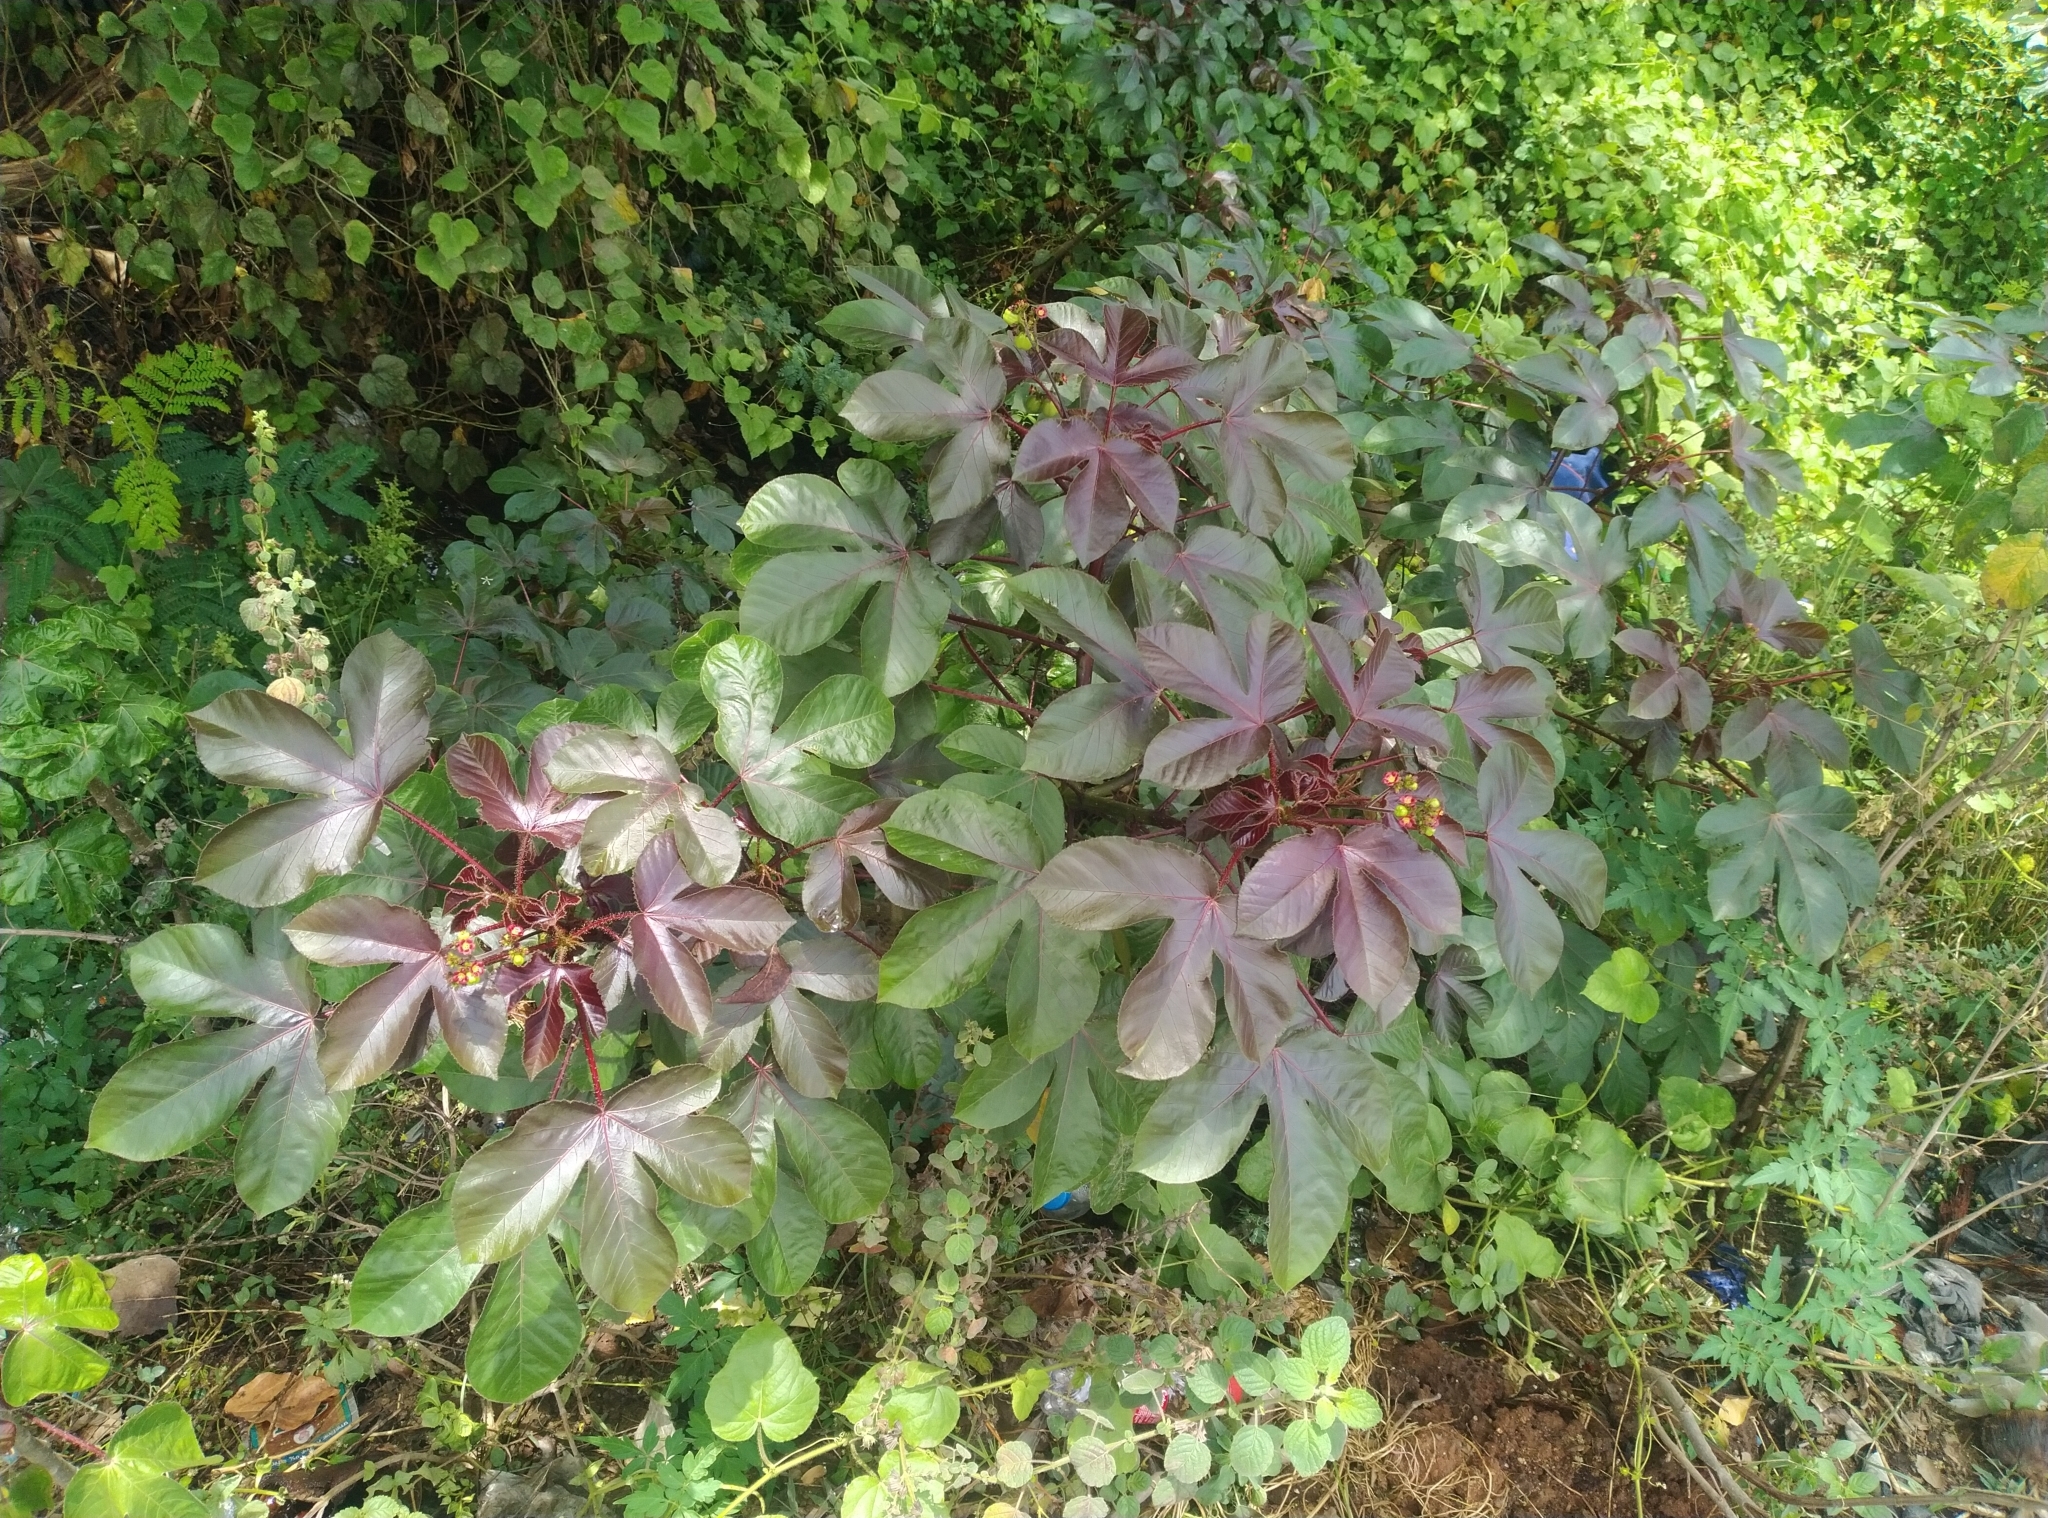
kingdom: Plantae
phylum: Tracheophyta
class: Magnoliopsida
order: Malpighiales
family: Euphorbiaceae
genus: Jatropha
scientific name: Jatropha gossypiifolia
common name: Bellyache bush
